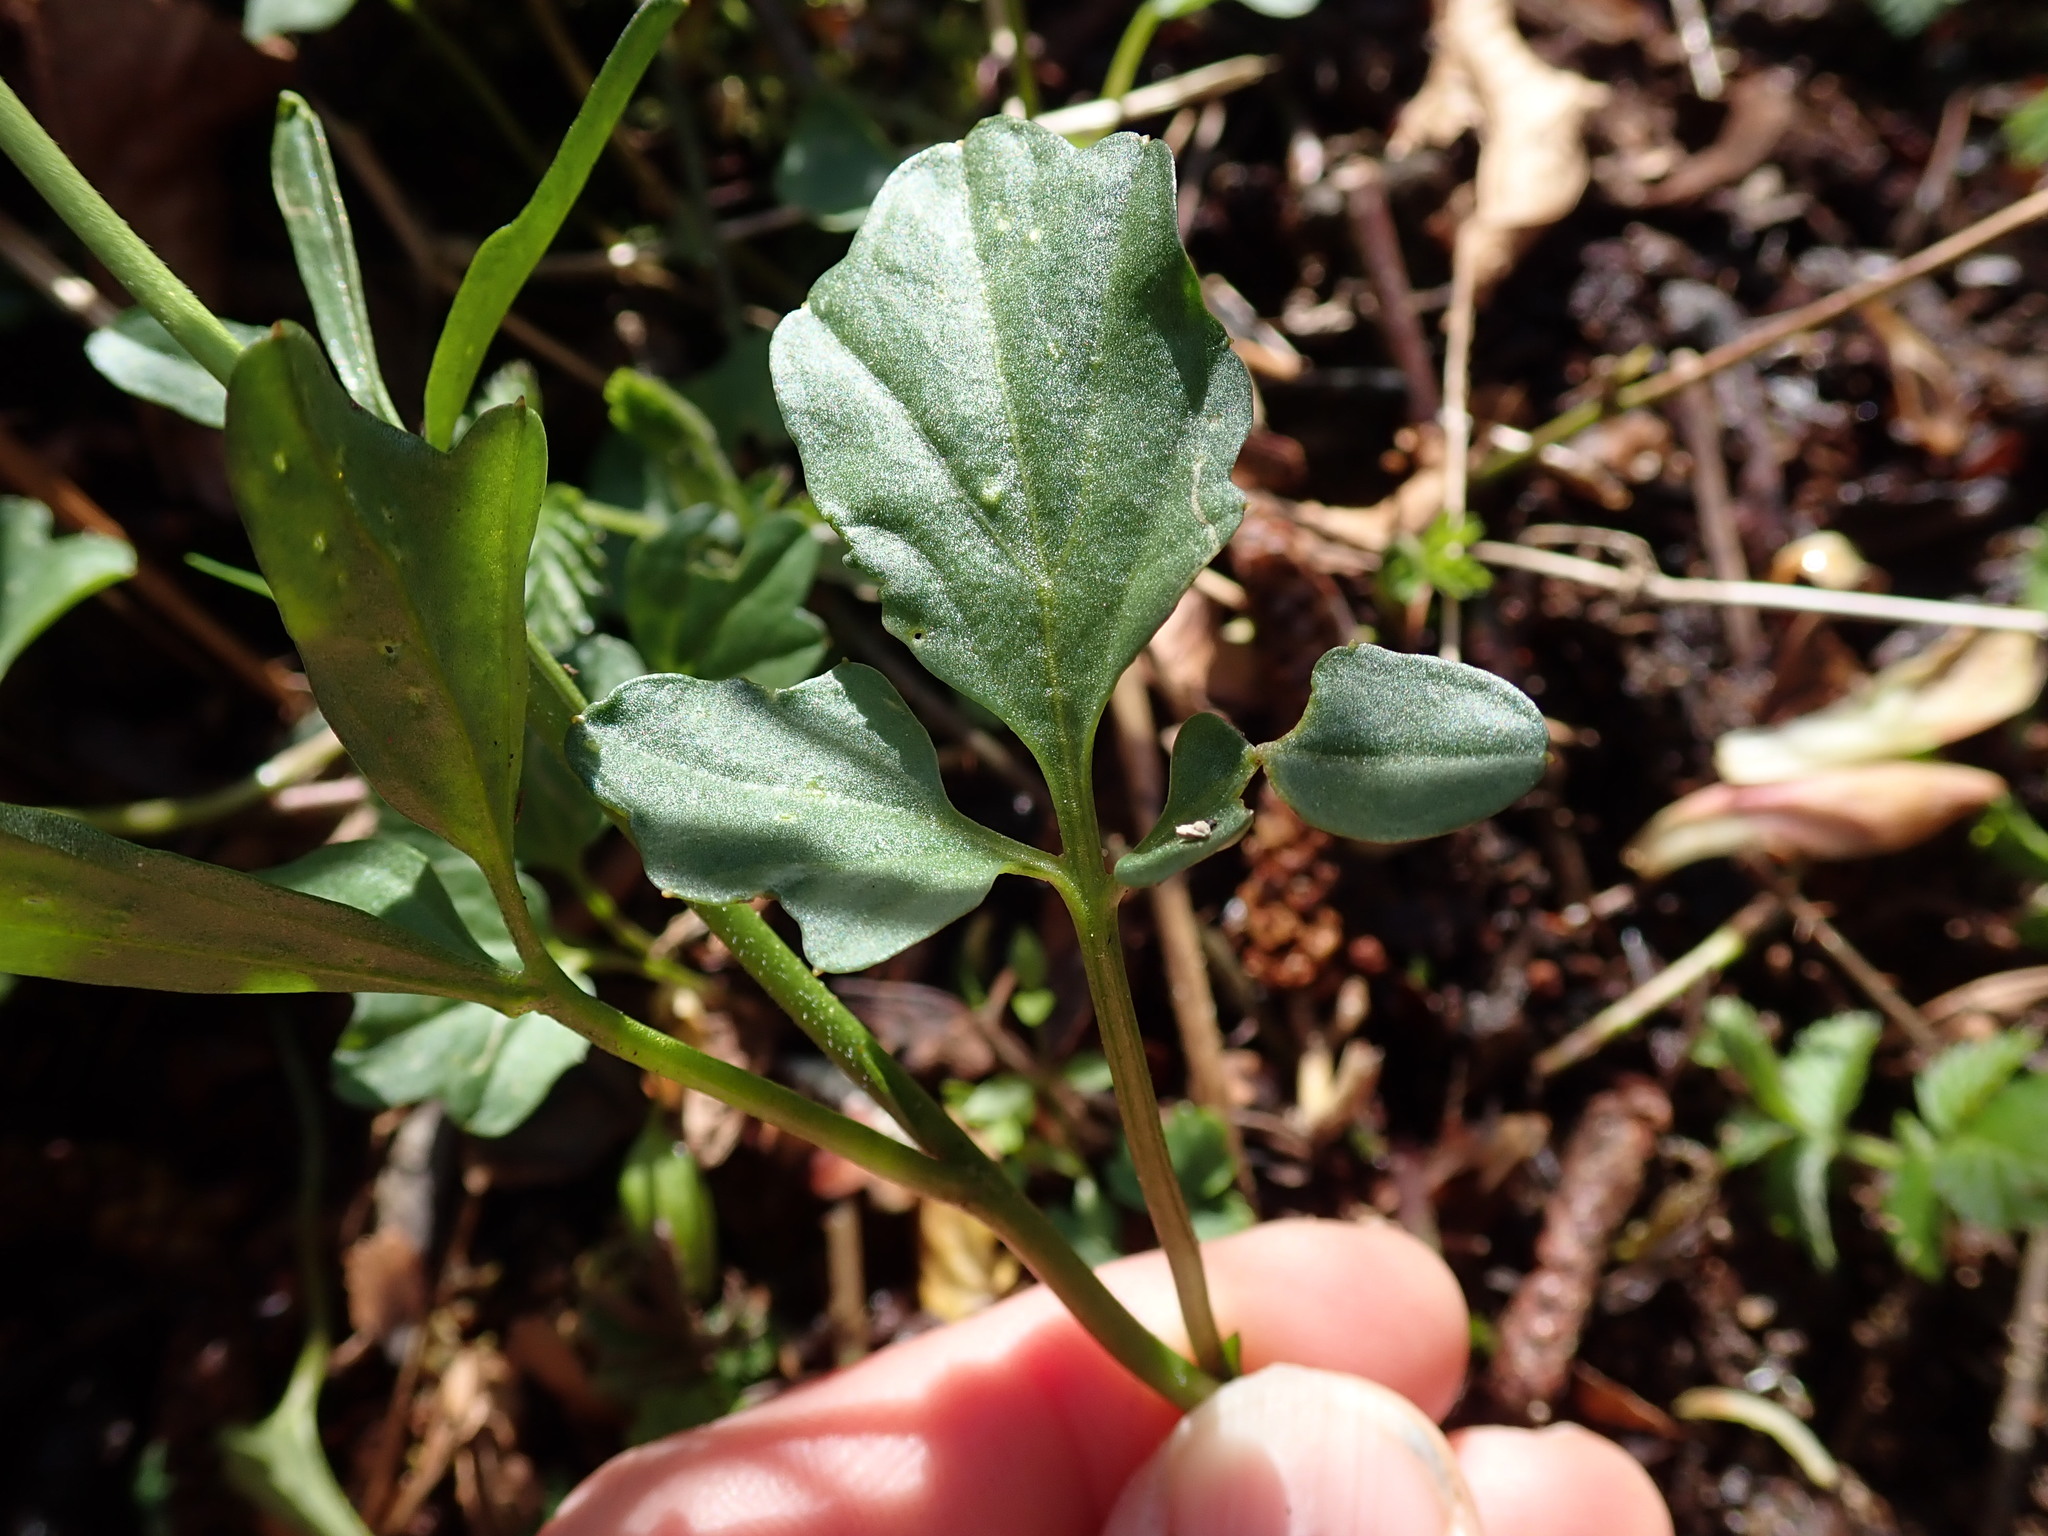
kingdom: Plantae
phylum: Tracheophyta
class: Magnoliopsida
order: Brassicales
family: Brassicaceae
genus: Cardamine
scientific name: Cardamine nuttallii
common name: Nuttall's toothwort
